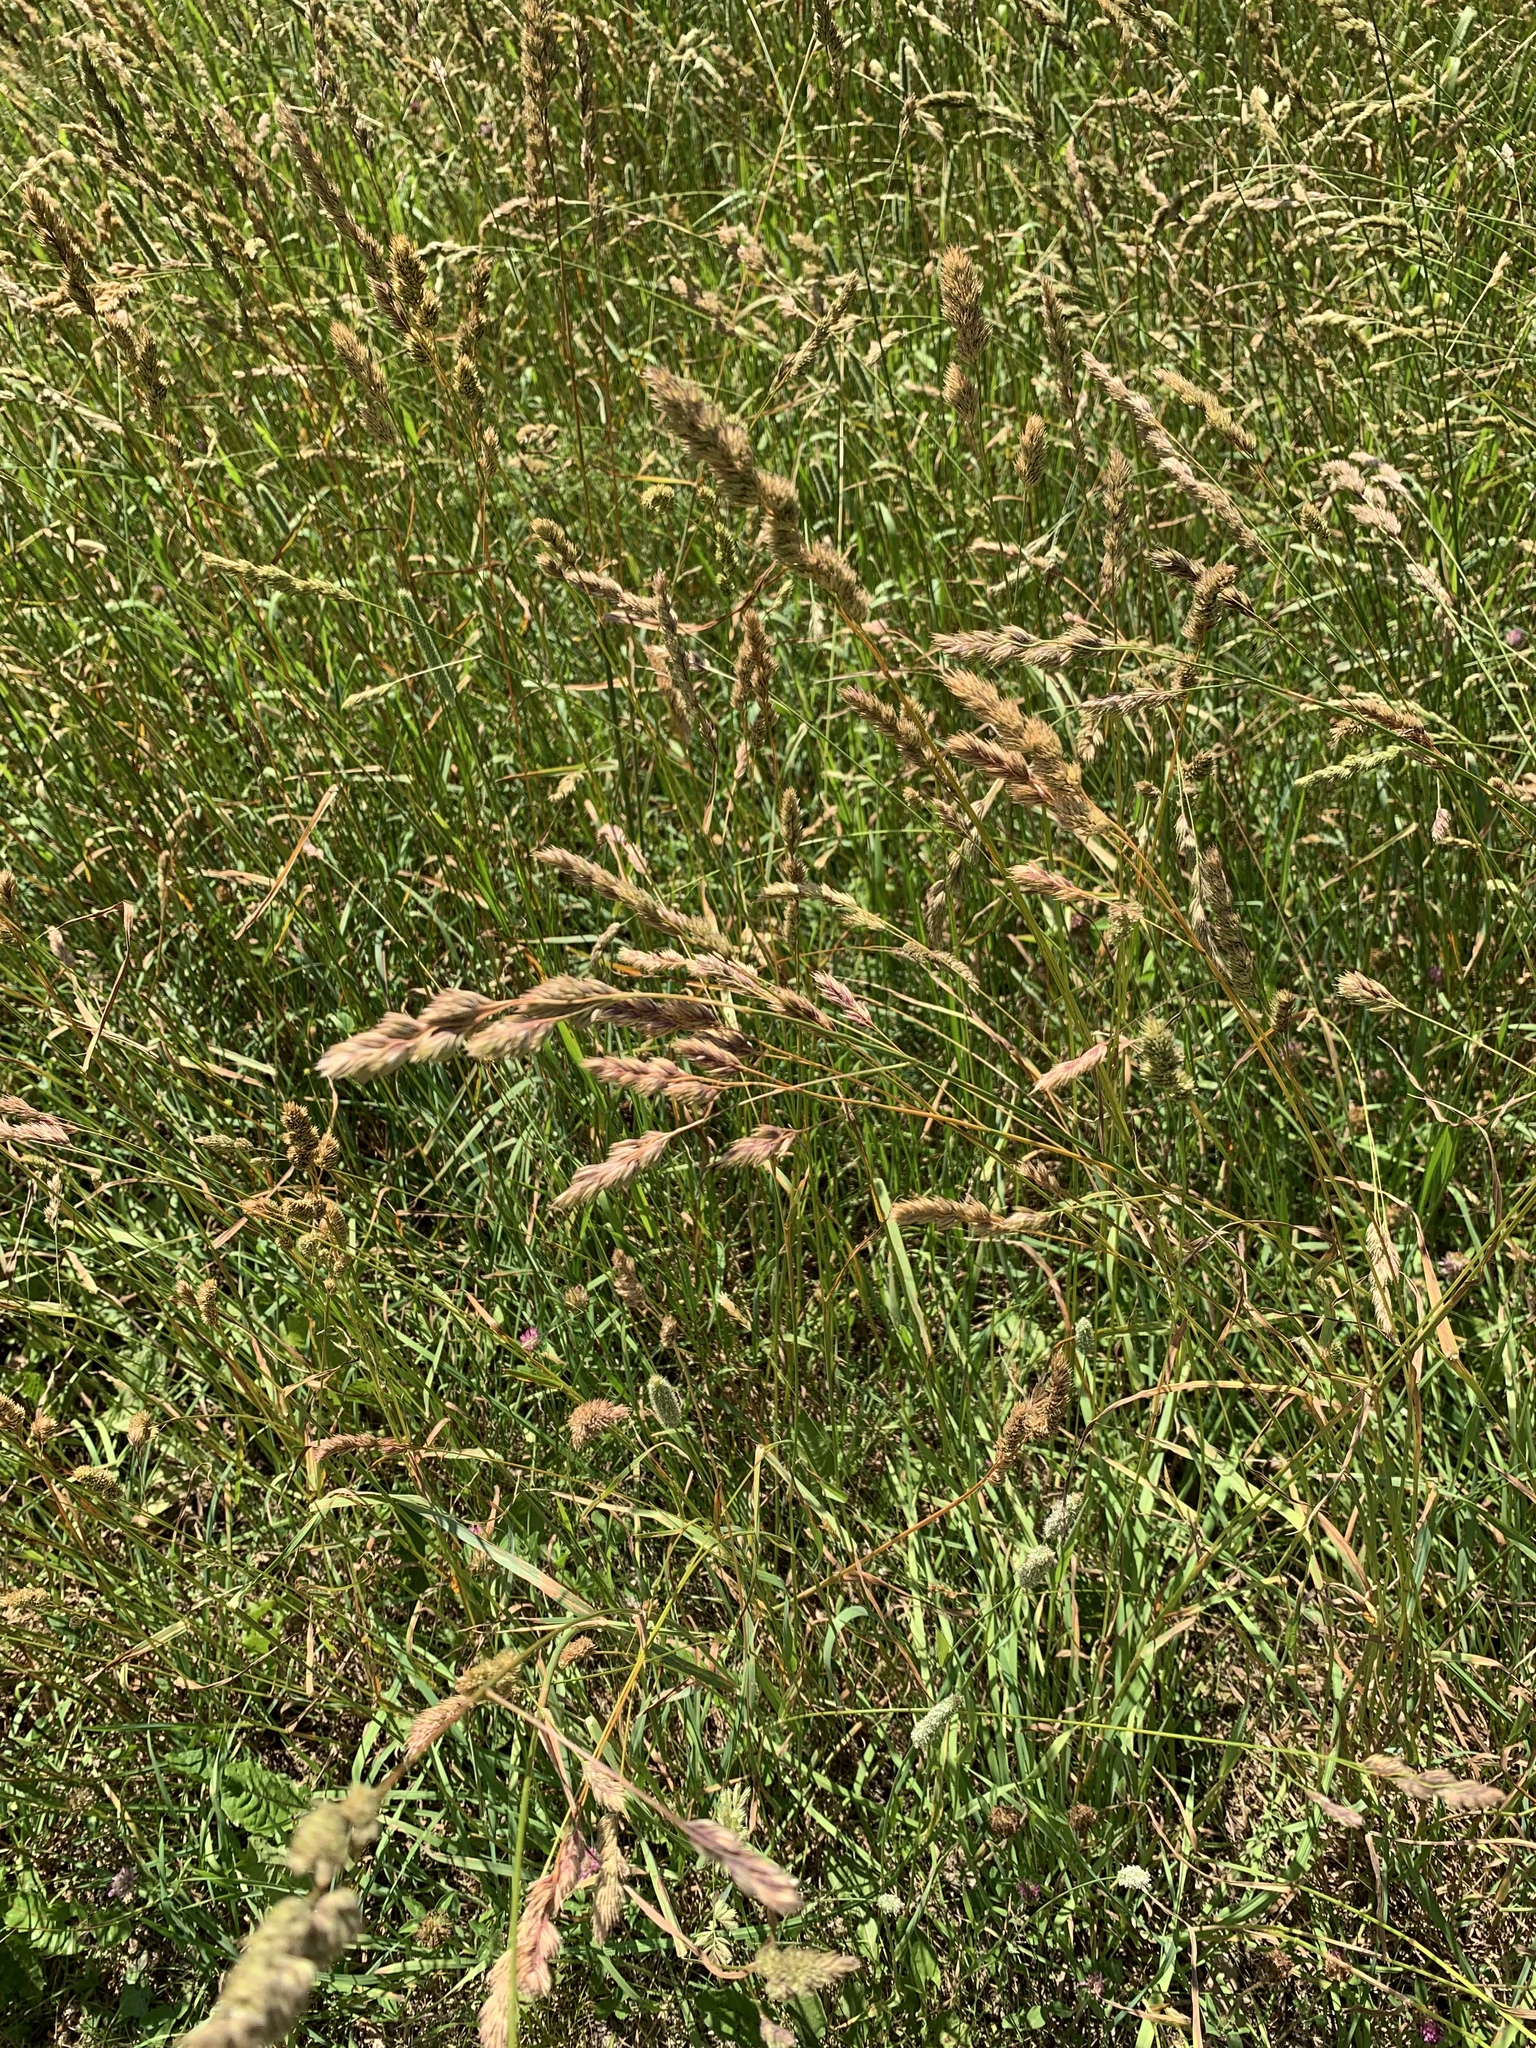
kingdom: Plantae
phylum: Tracheophyta
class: Liliopsida
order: Poales
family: Poaceae
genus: Dactylis
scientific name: Dactylis glomerata
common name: Orchardgrass
